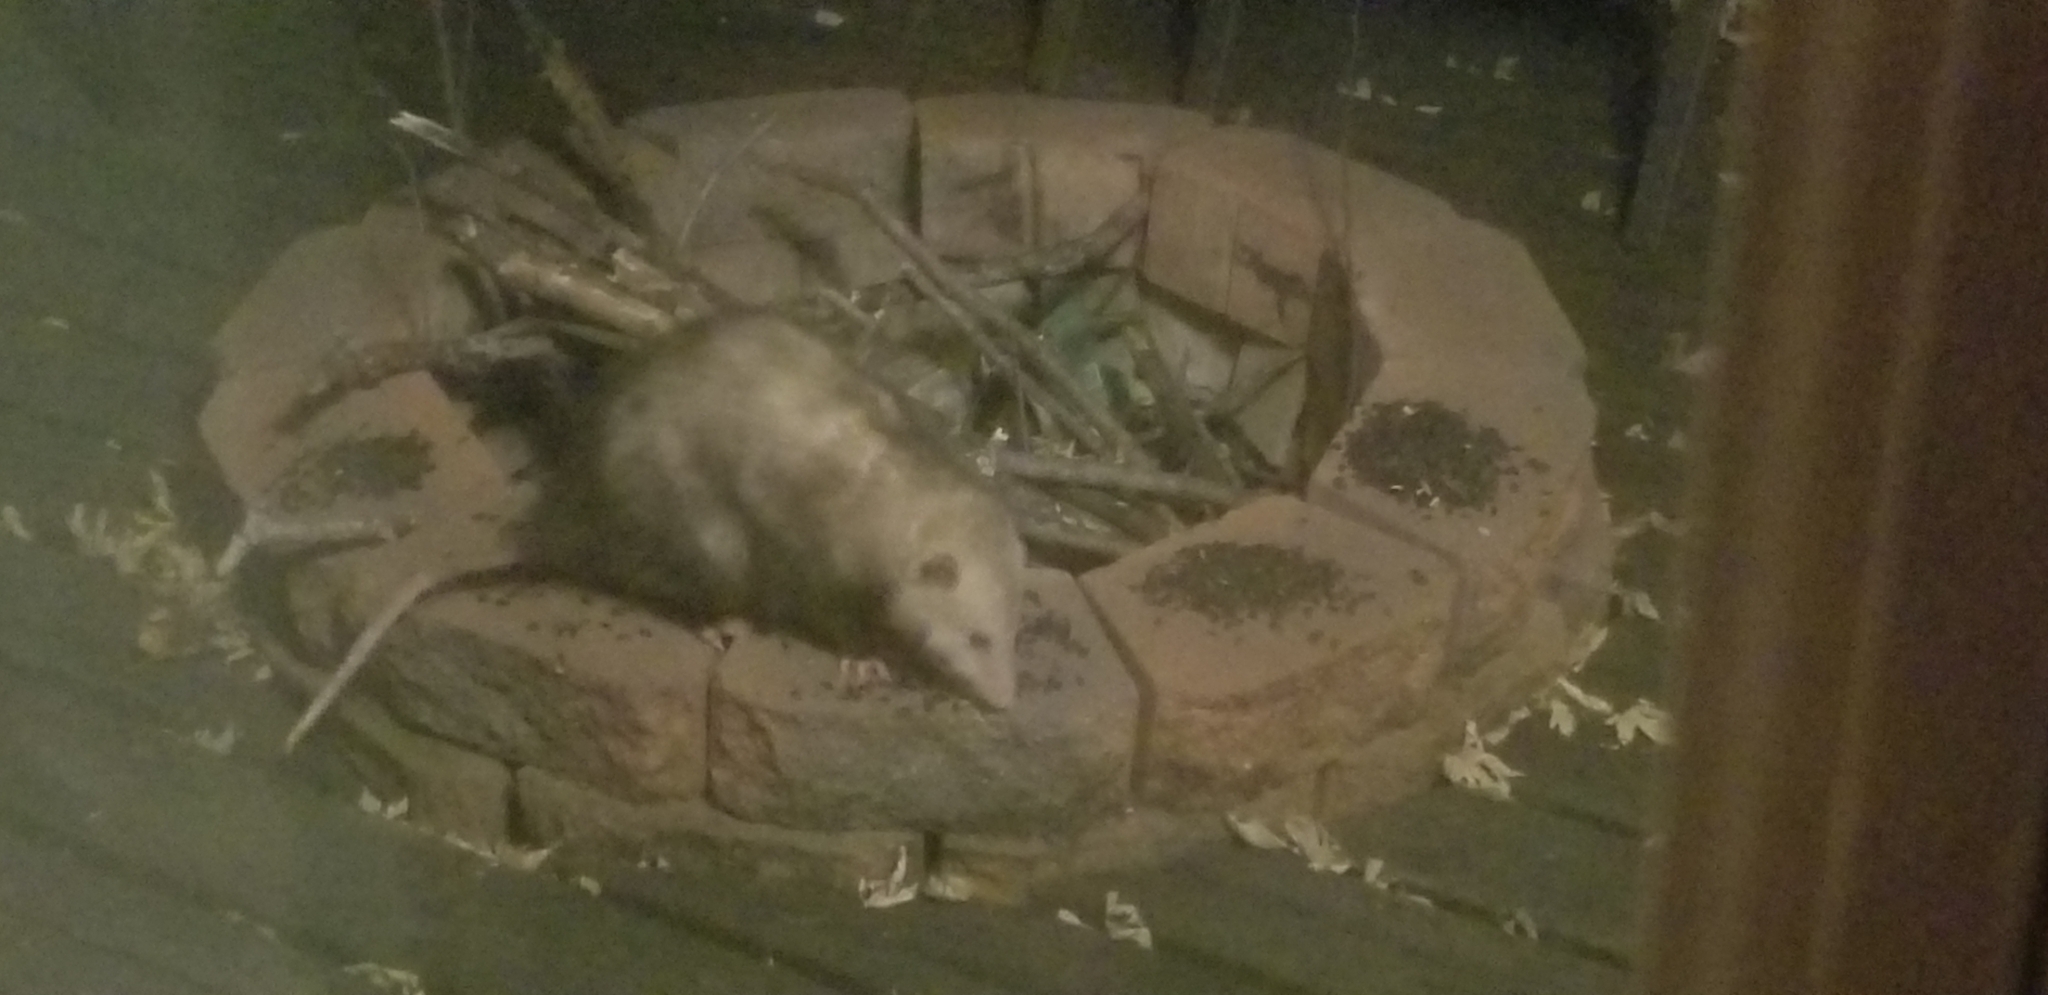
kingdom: Animalia
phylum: Chordata
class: Mammalia
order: Didelphimorphia
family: Didelphidae
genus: Didelphis
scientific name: Didelphis virginiana
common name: Virginia opossum
